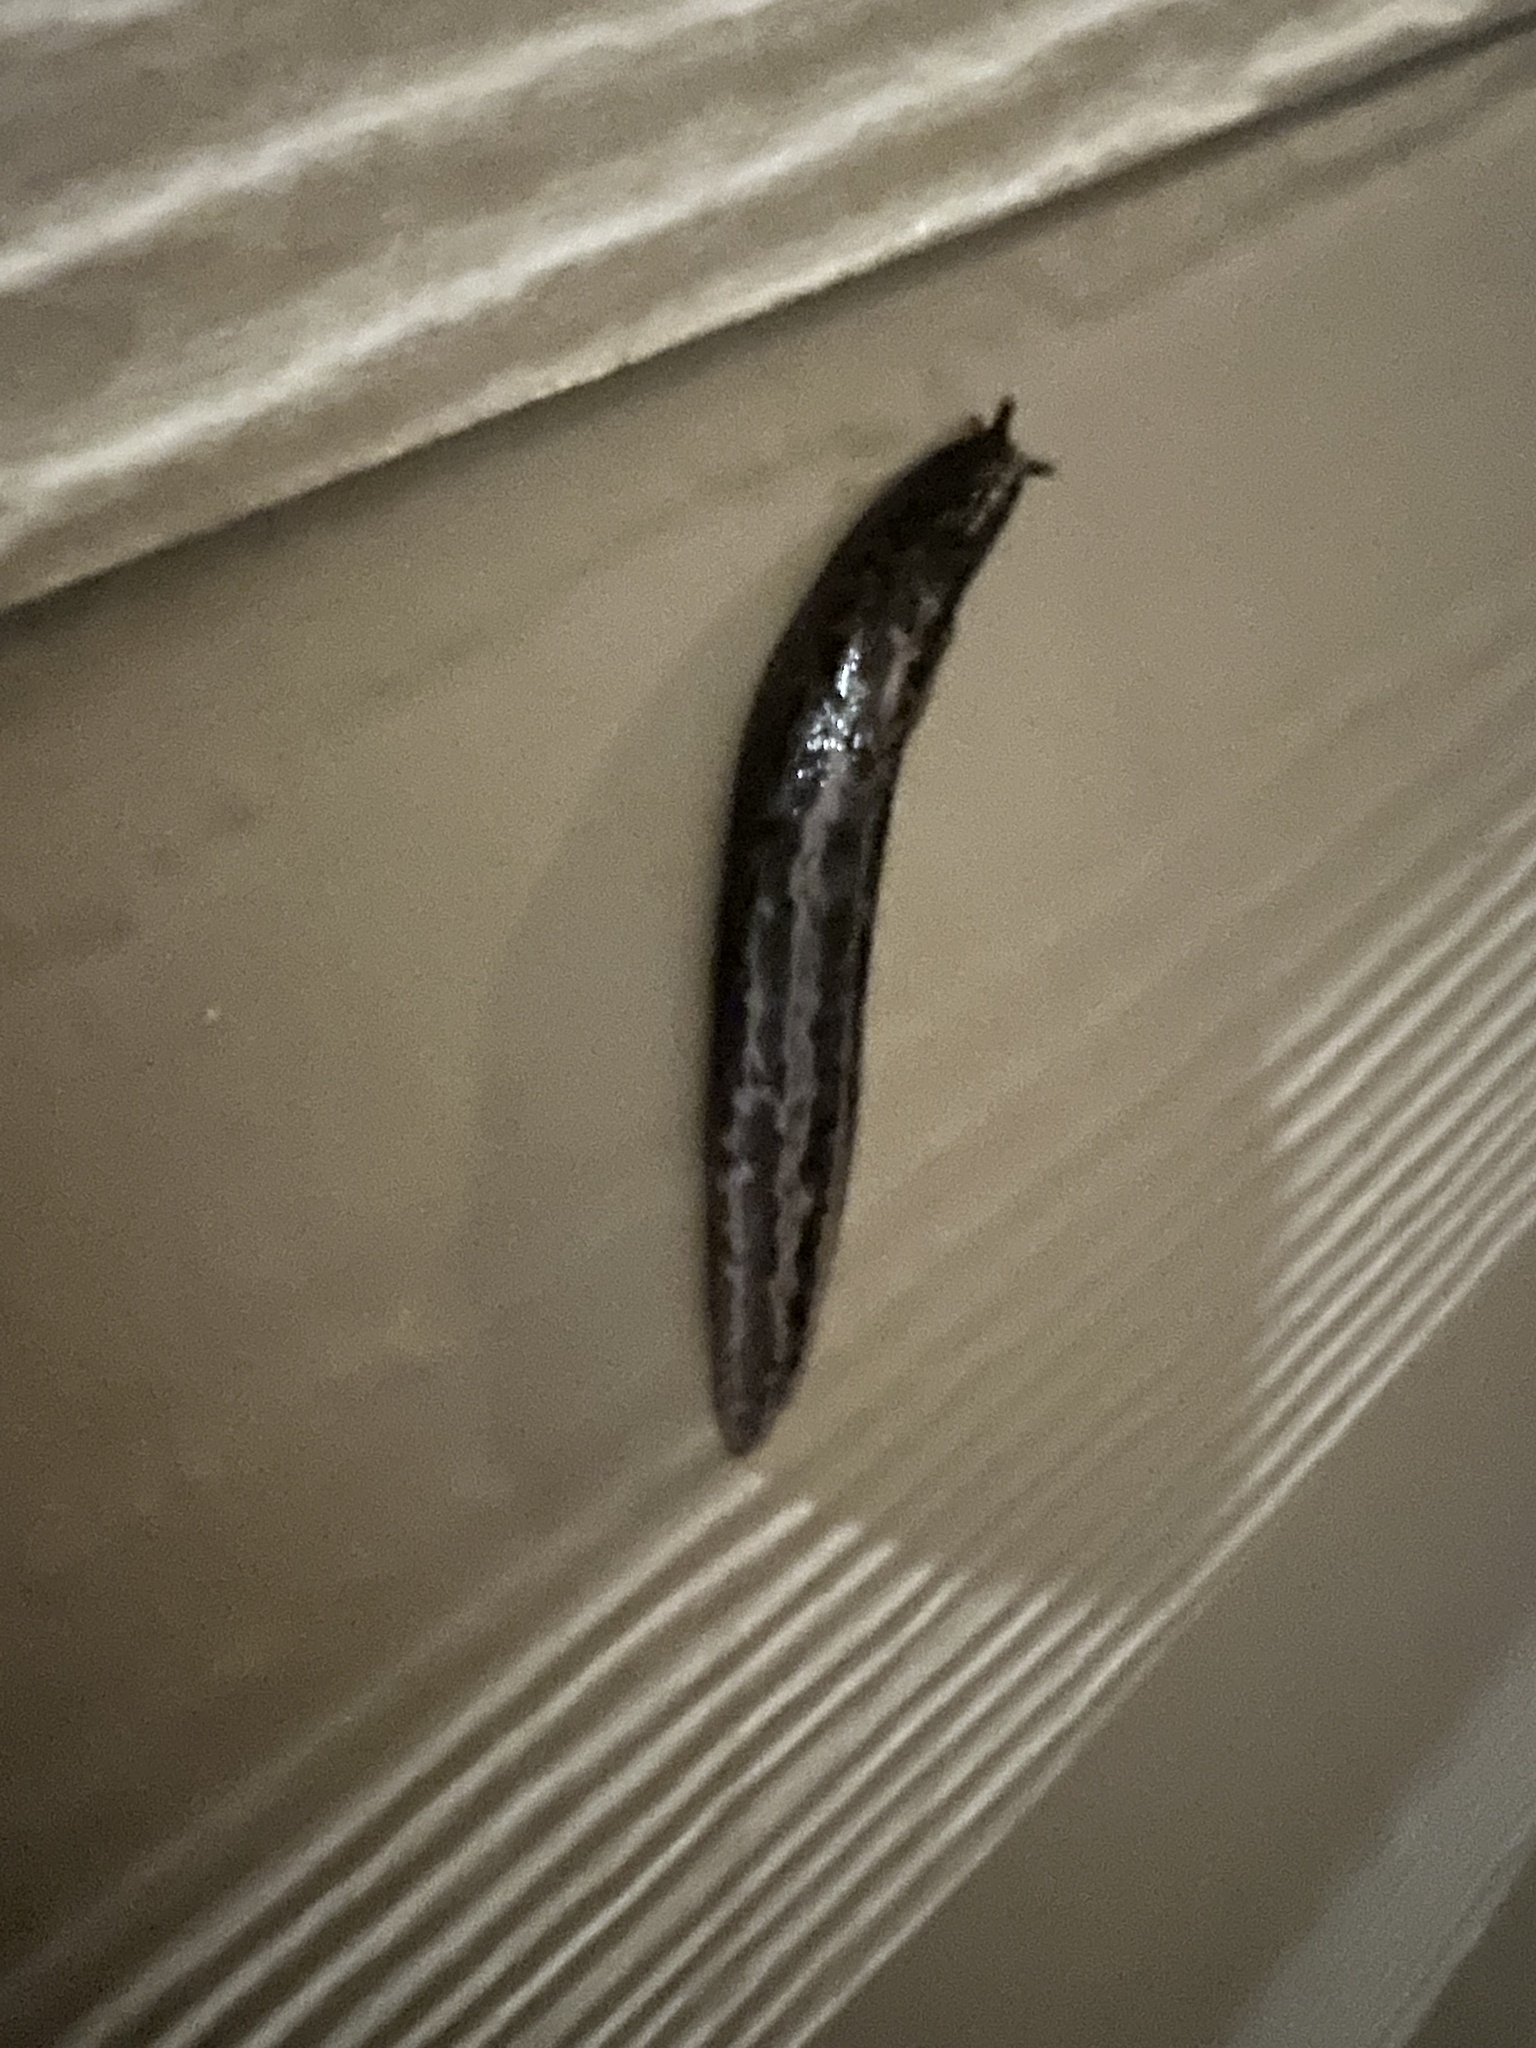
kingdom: Animalia
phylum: Mollusca
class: Gastropoda
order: Stylommatophora
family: Limacidae
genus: Limax
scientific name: Limax maximus
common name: Great grey slug
